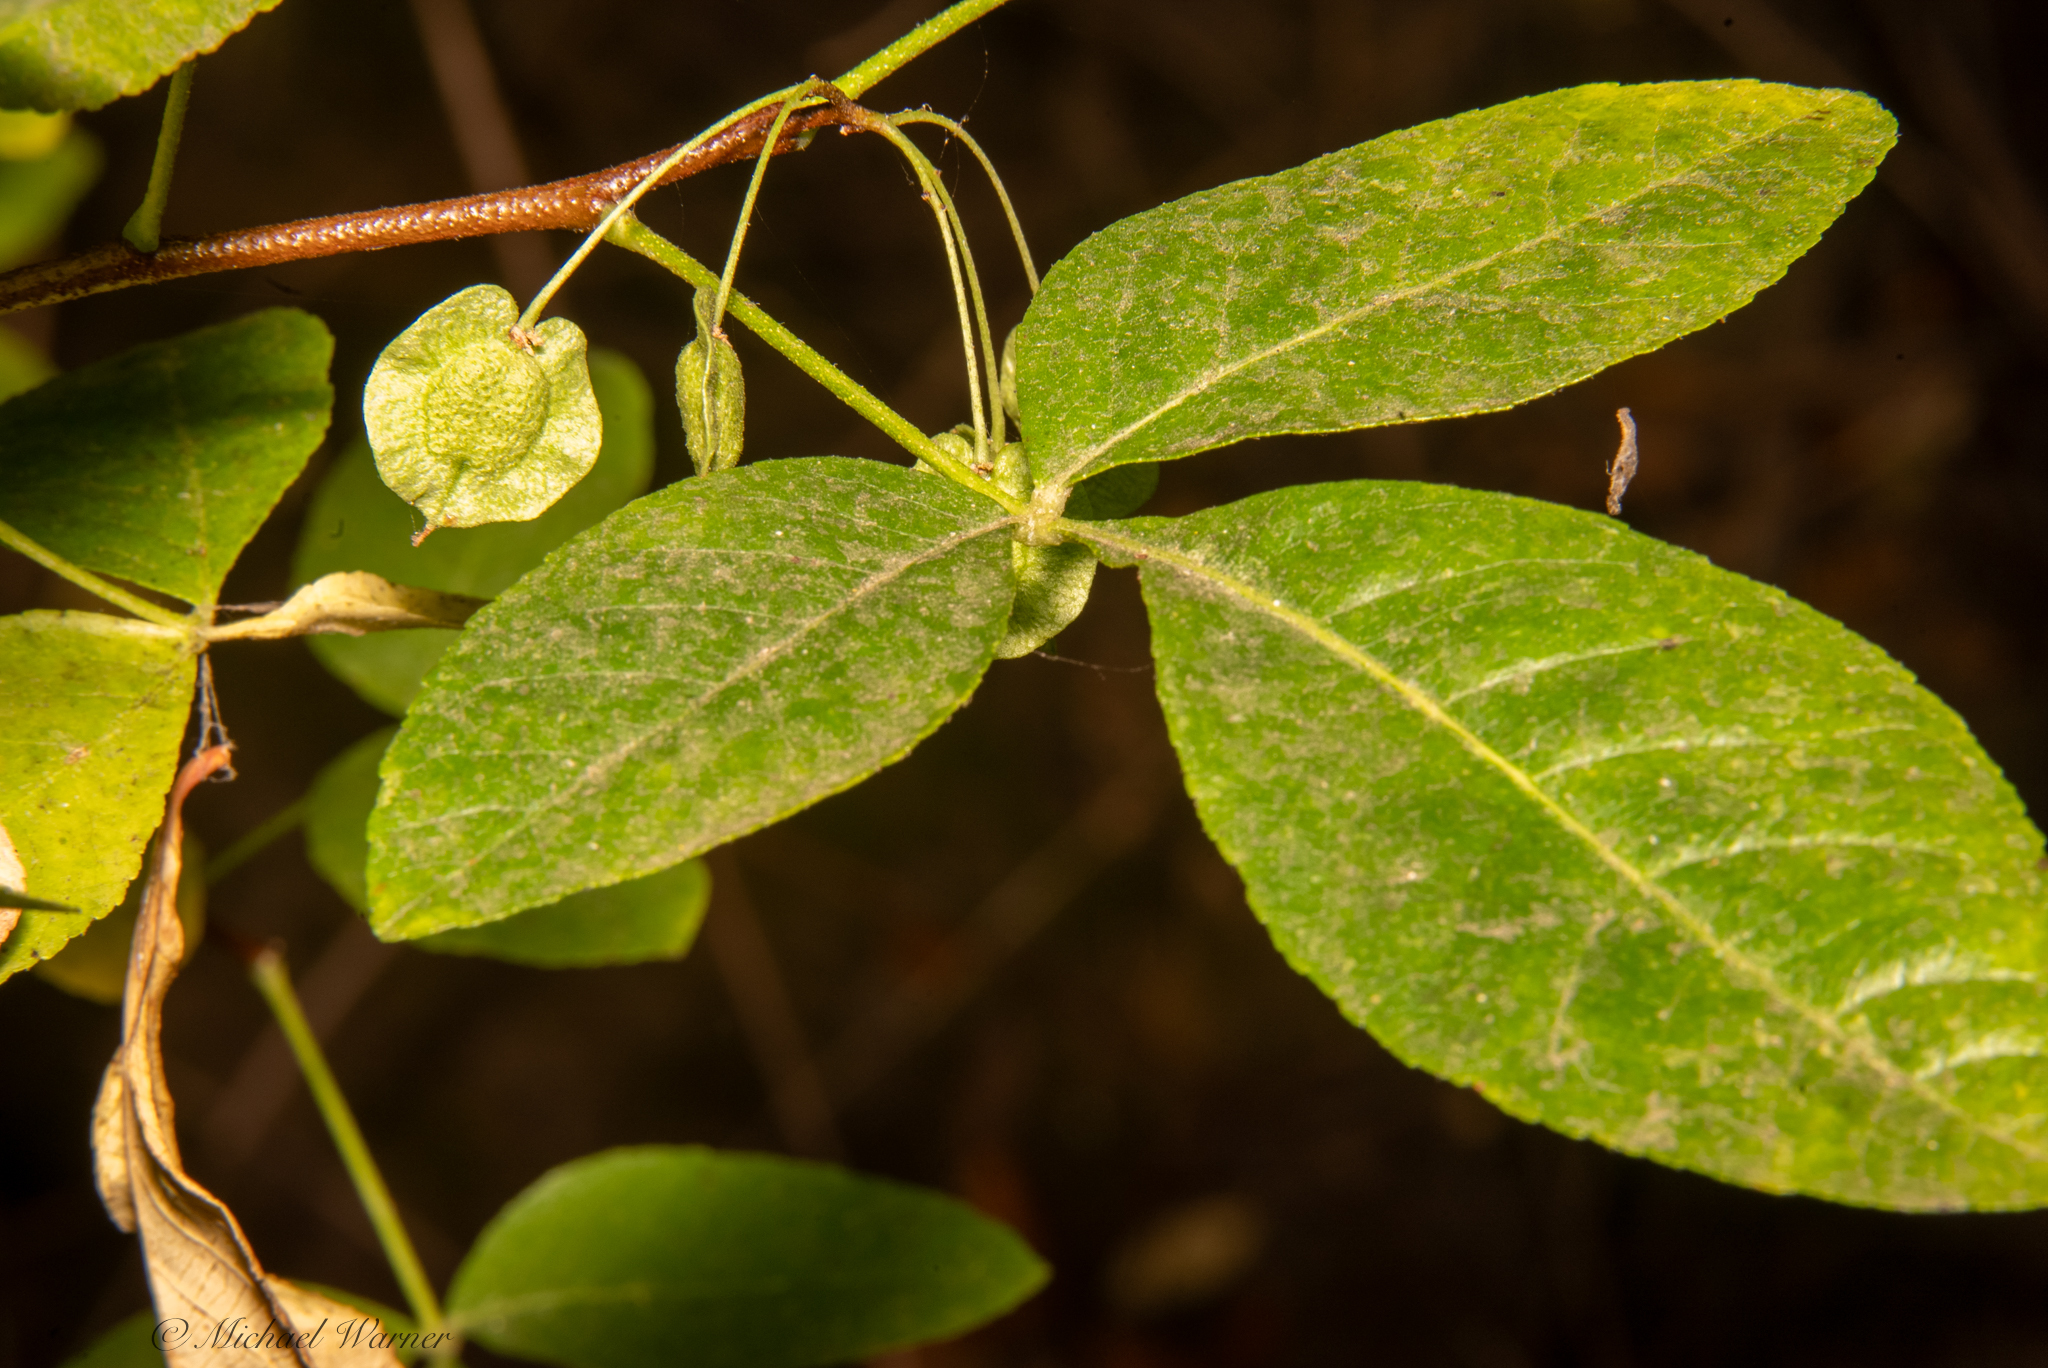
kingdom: Plantae
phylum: Tracheophyta
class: Magnoliopsida
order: Sapindales
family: Rutaceae
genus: Ptelea
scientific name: Ptelea crenulata
